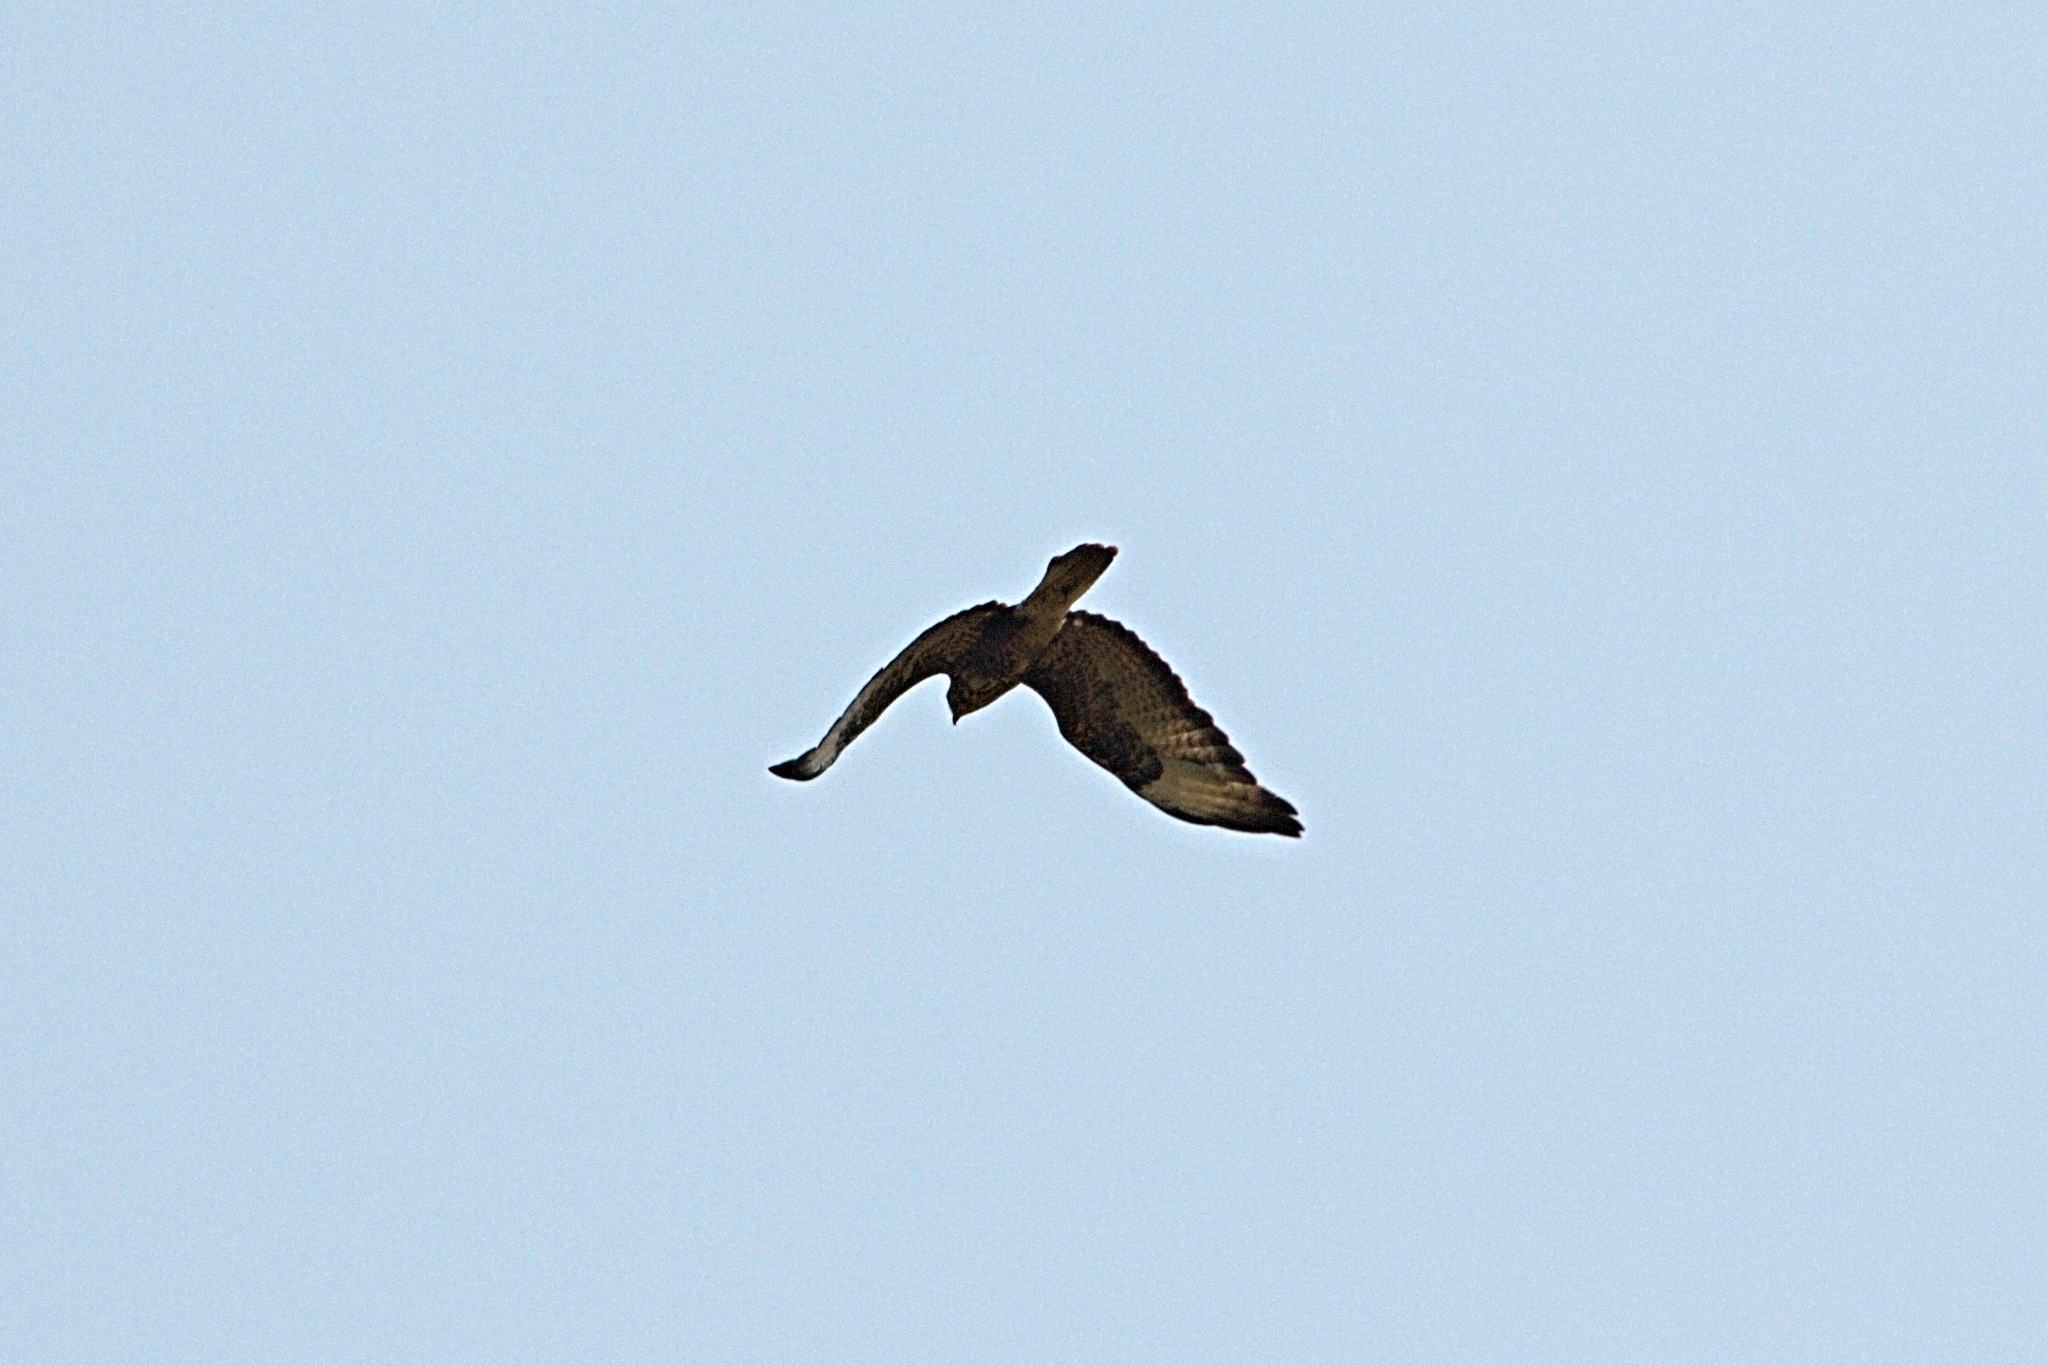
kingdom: Animalia
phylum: Chordata
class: Aves
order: Accipitriformes
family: Accipitridae
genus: Buteo
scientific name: Buteo buteo
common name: Common buzzard
